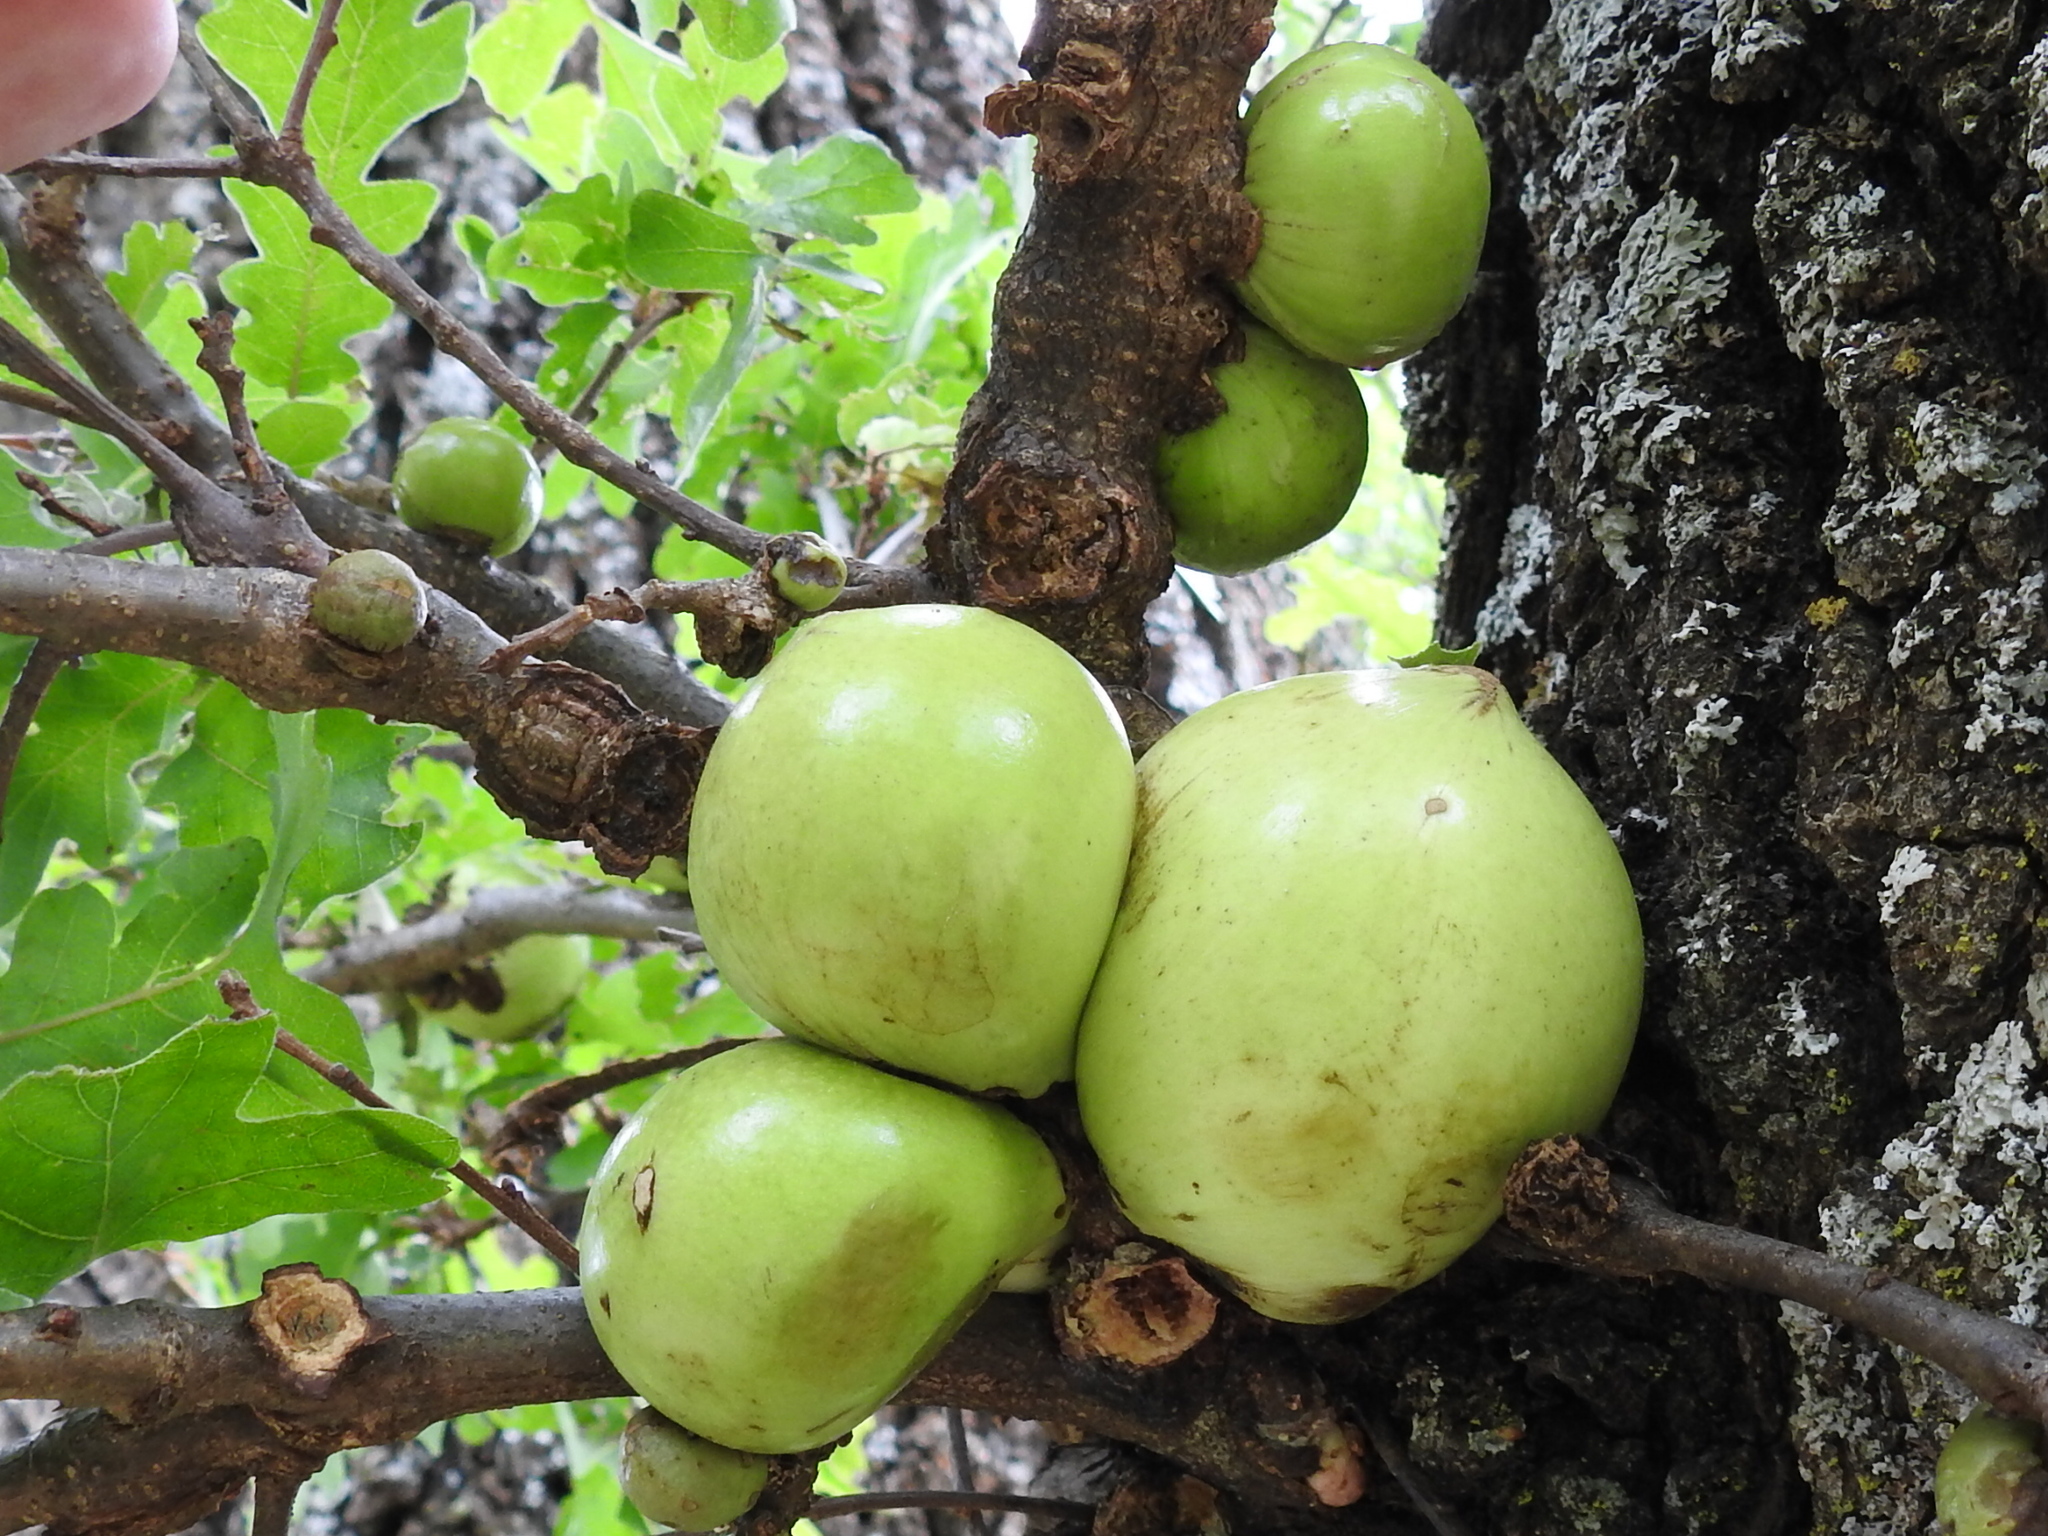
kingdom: Animalia
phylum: Arthropoda
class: Insecta
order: Hymenoptera
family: Cynipidae
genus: Andricus
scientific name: Andricus quercuscalifornicus
